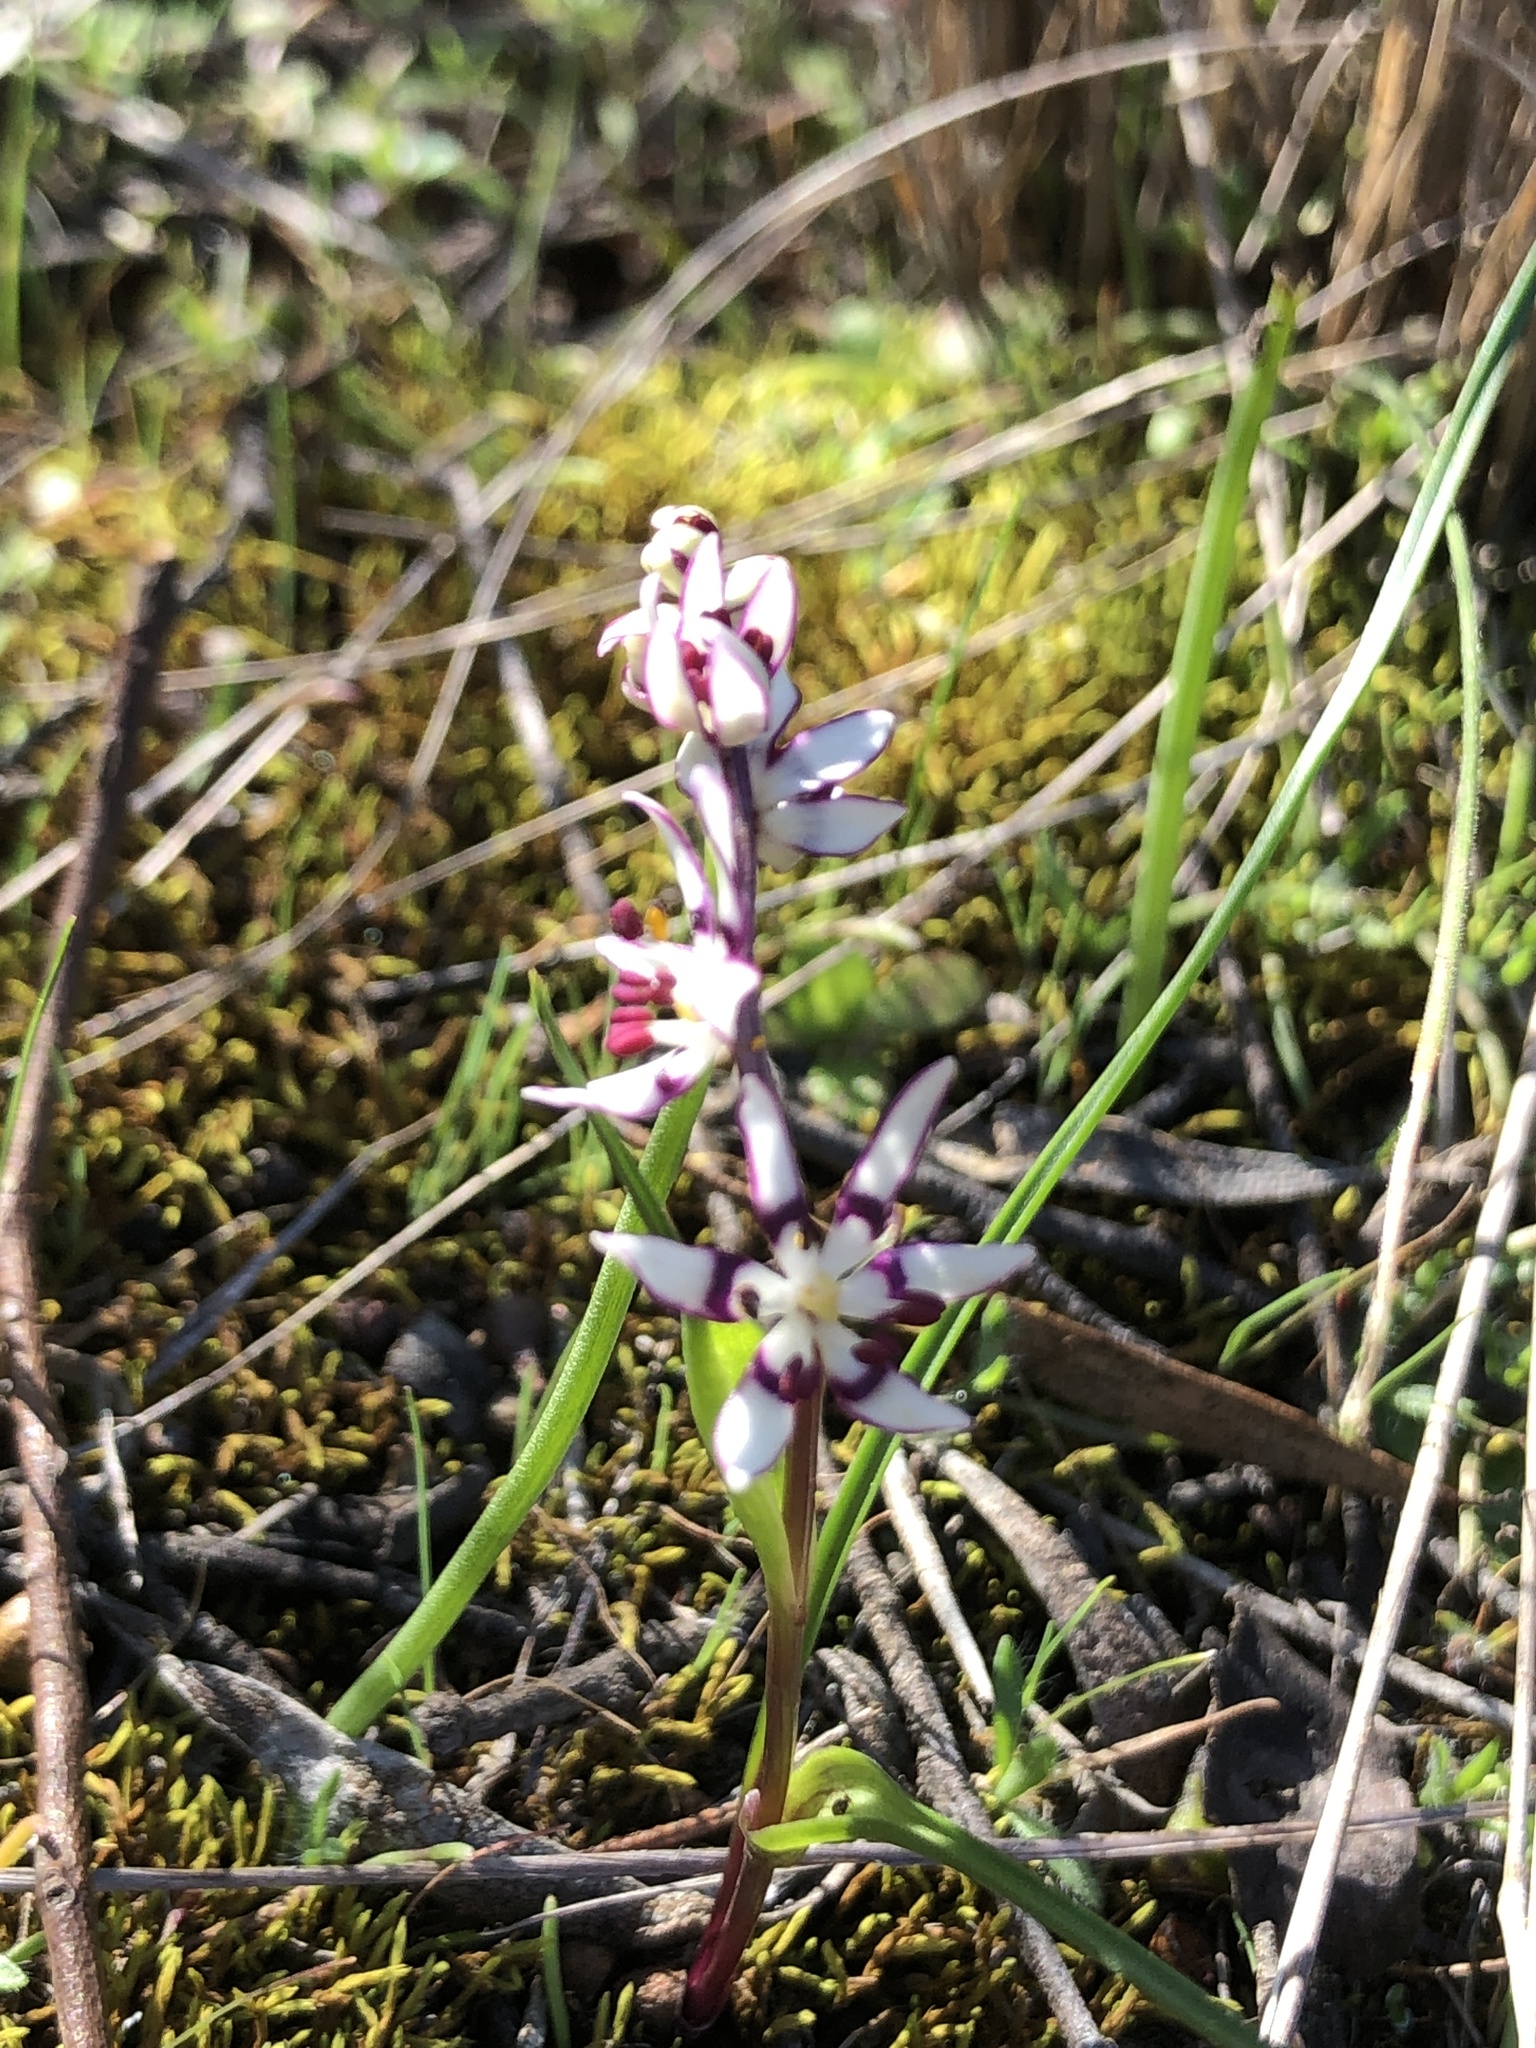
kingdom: Plantae
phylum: Tracheophyta
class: Liliopsida
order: Liliales
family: Colchicaceae
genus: Wurmbea
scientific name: Wurmbea dioica
